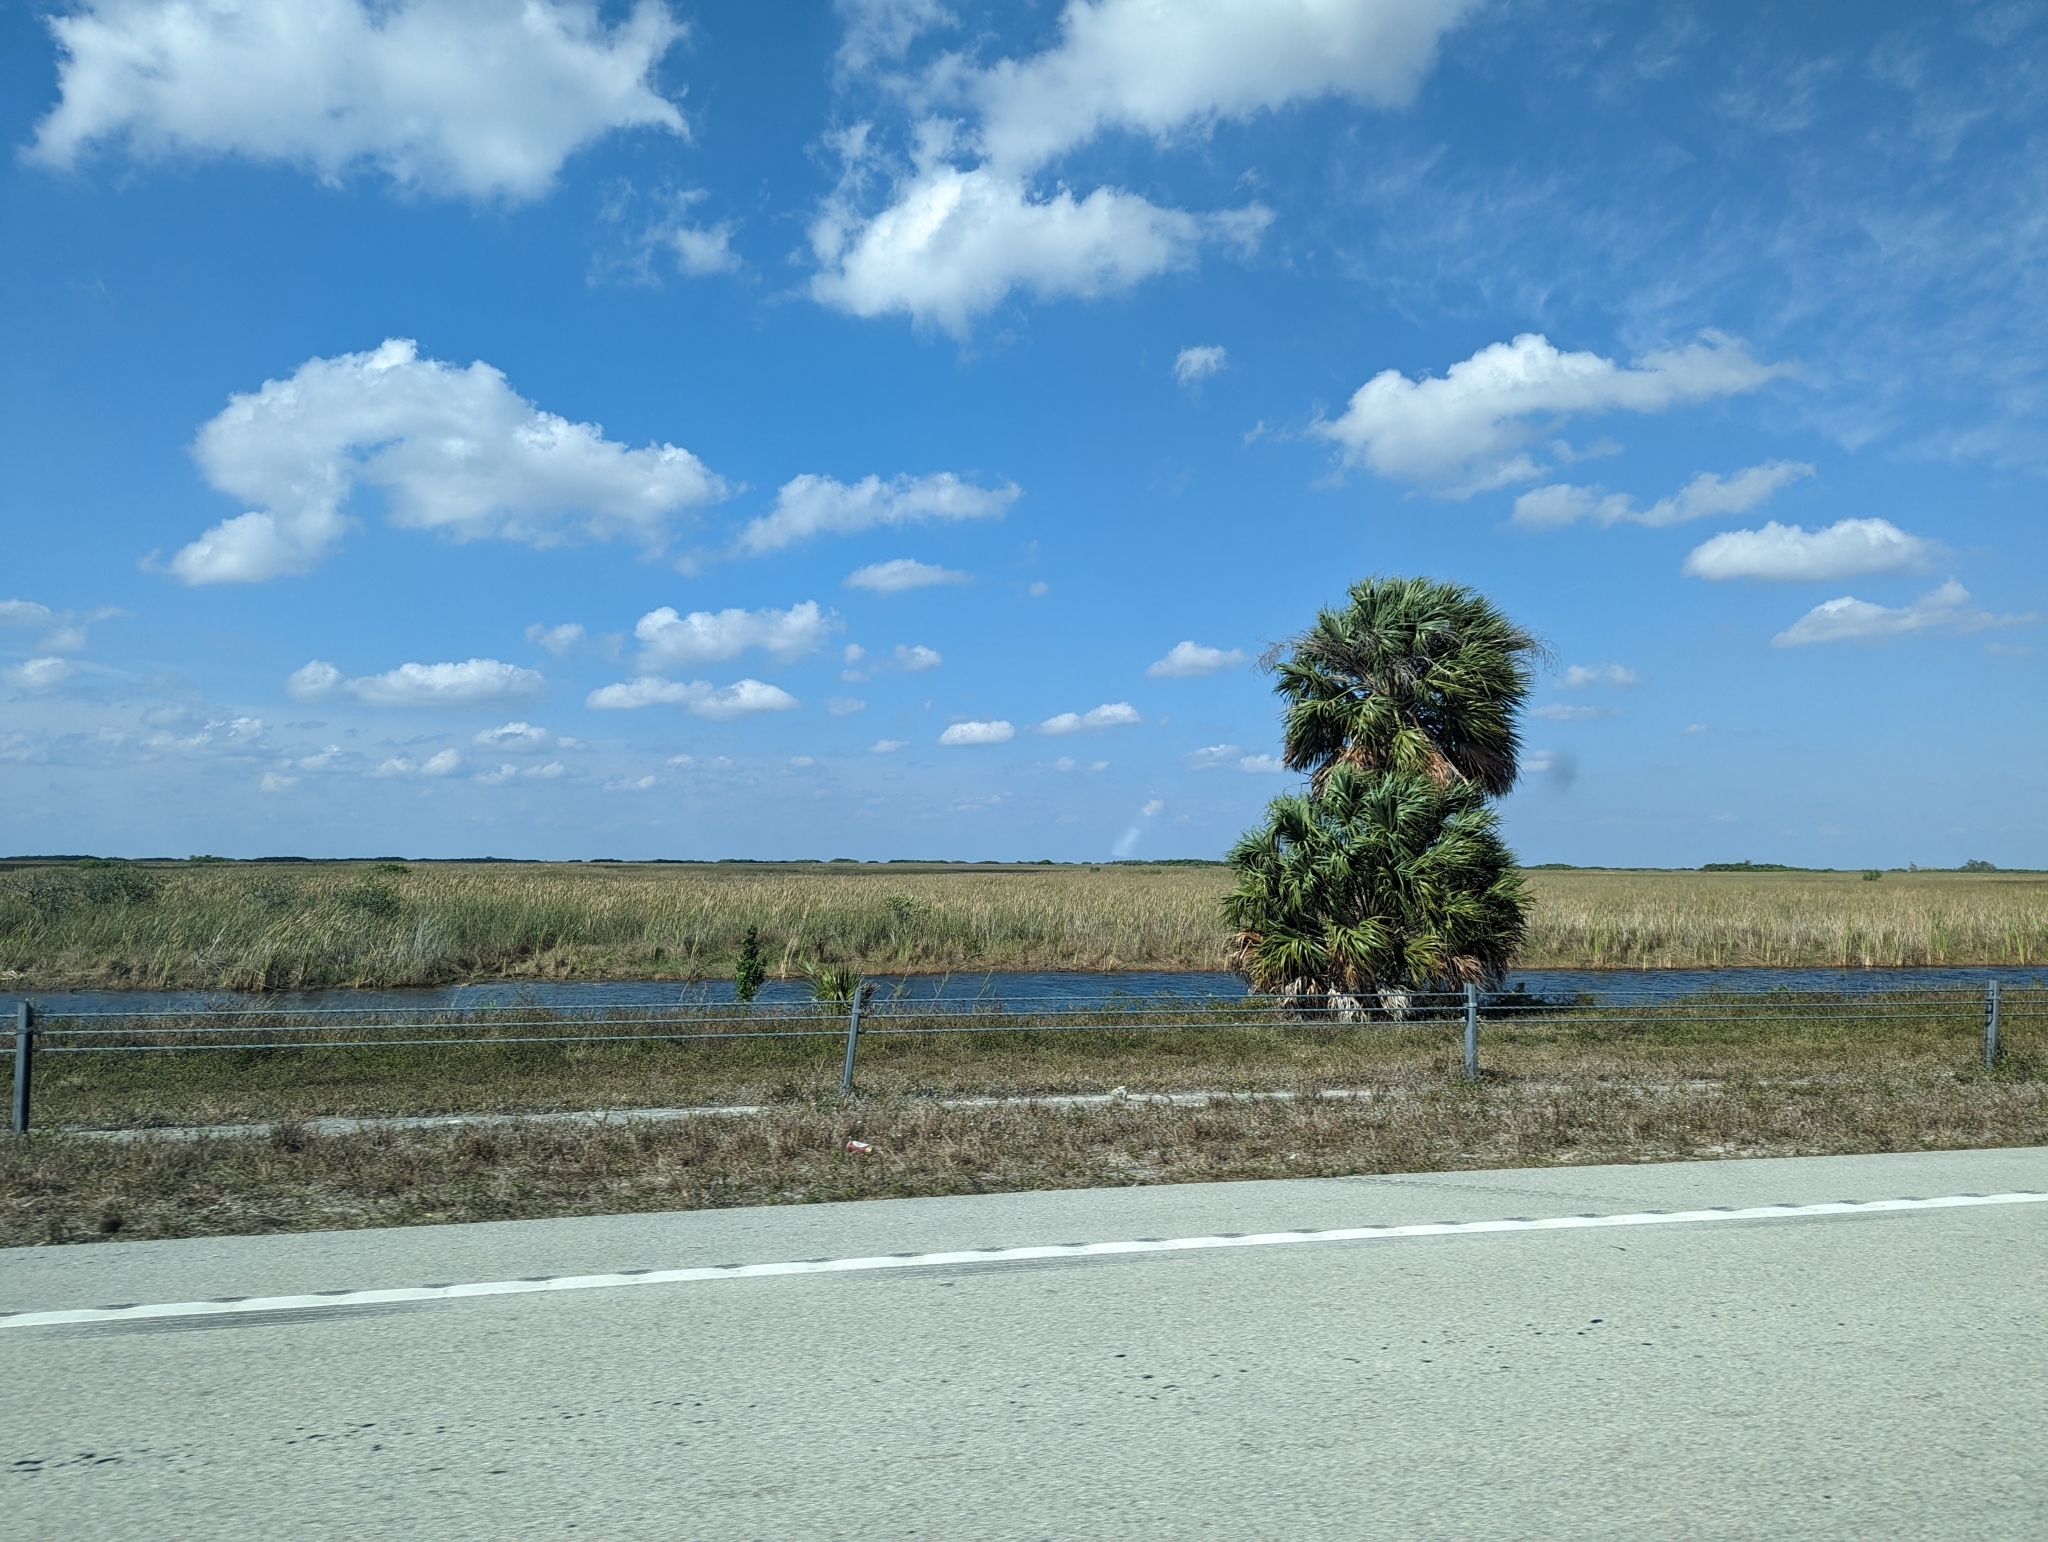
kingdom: Plantae
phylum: Tracheophyta
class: Liliopsida
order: Arecales
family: Arecaceae
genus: Sabal
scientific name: Sabal palmetto
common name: Blue palmetto
